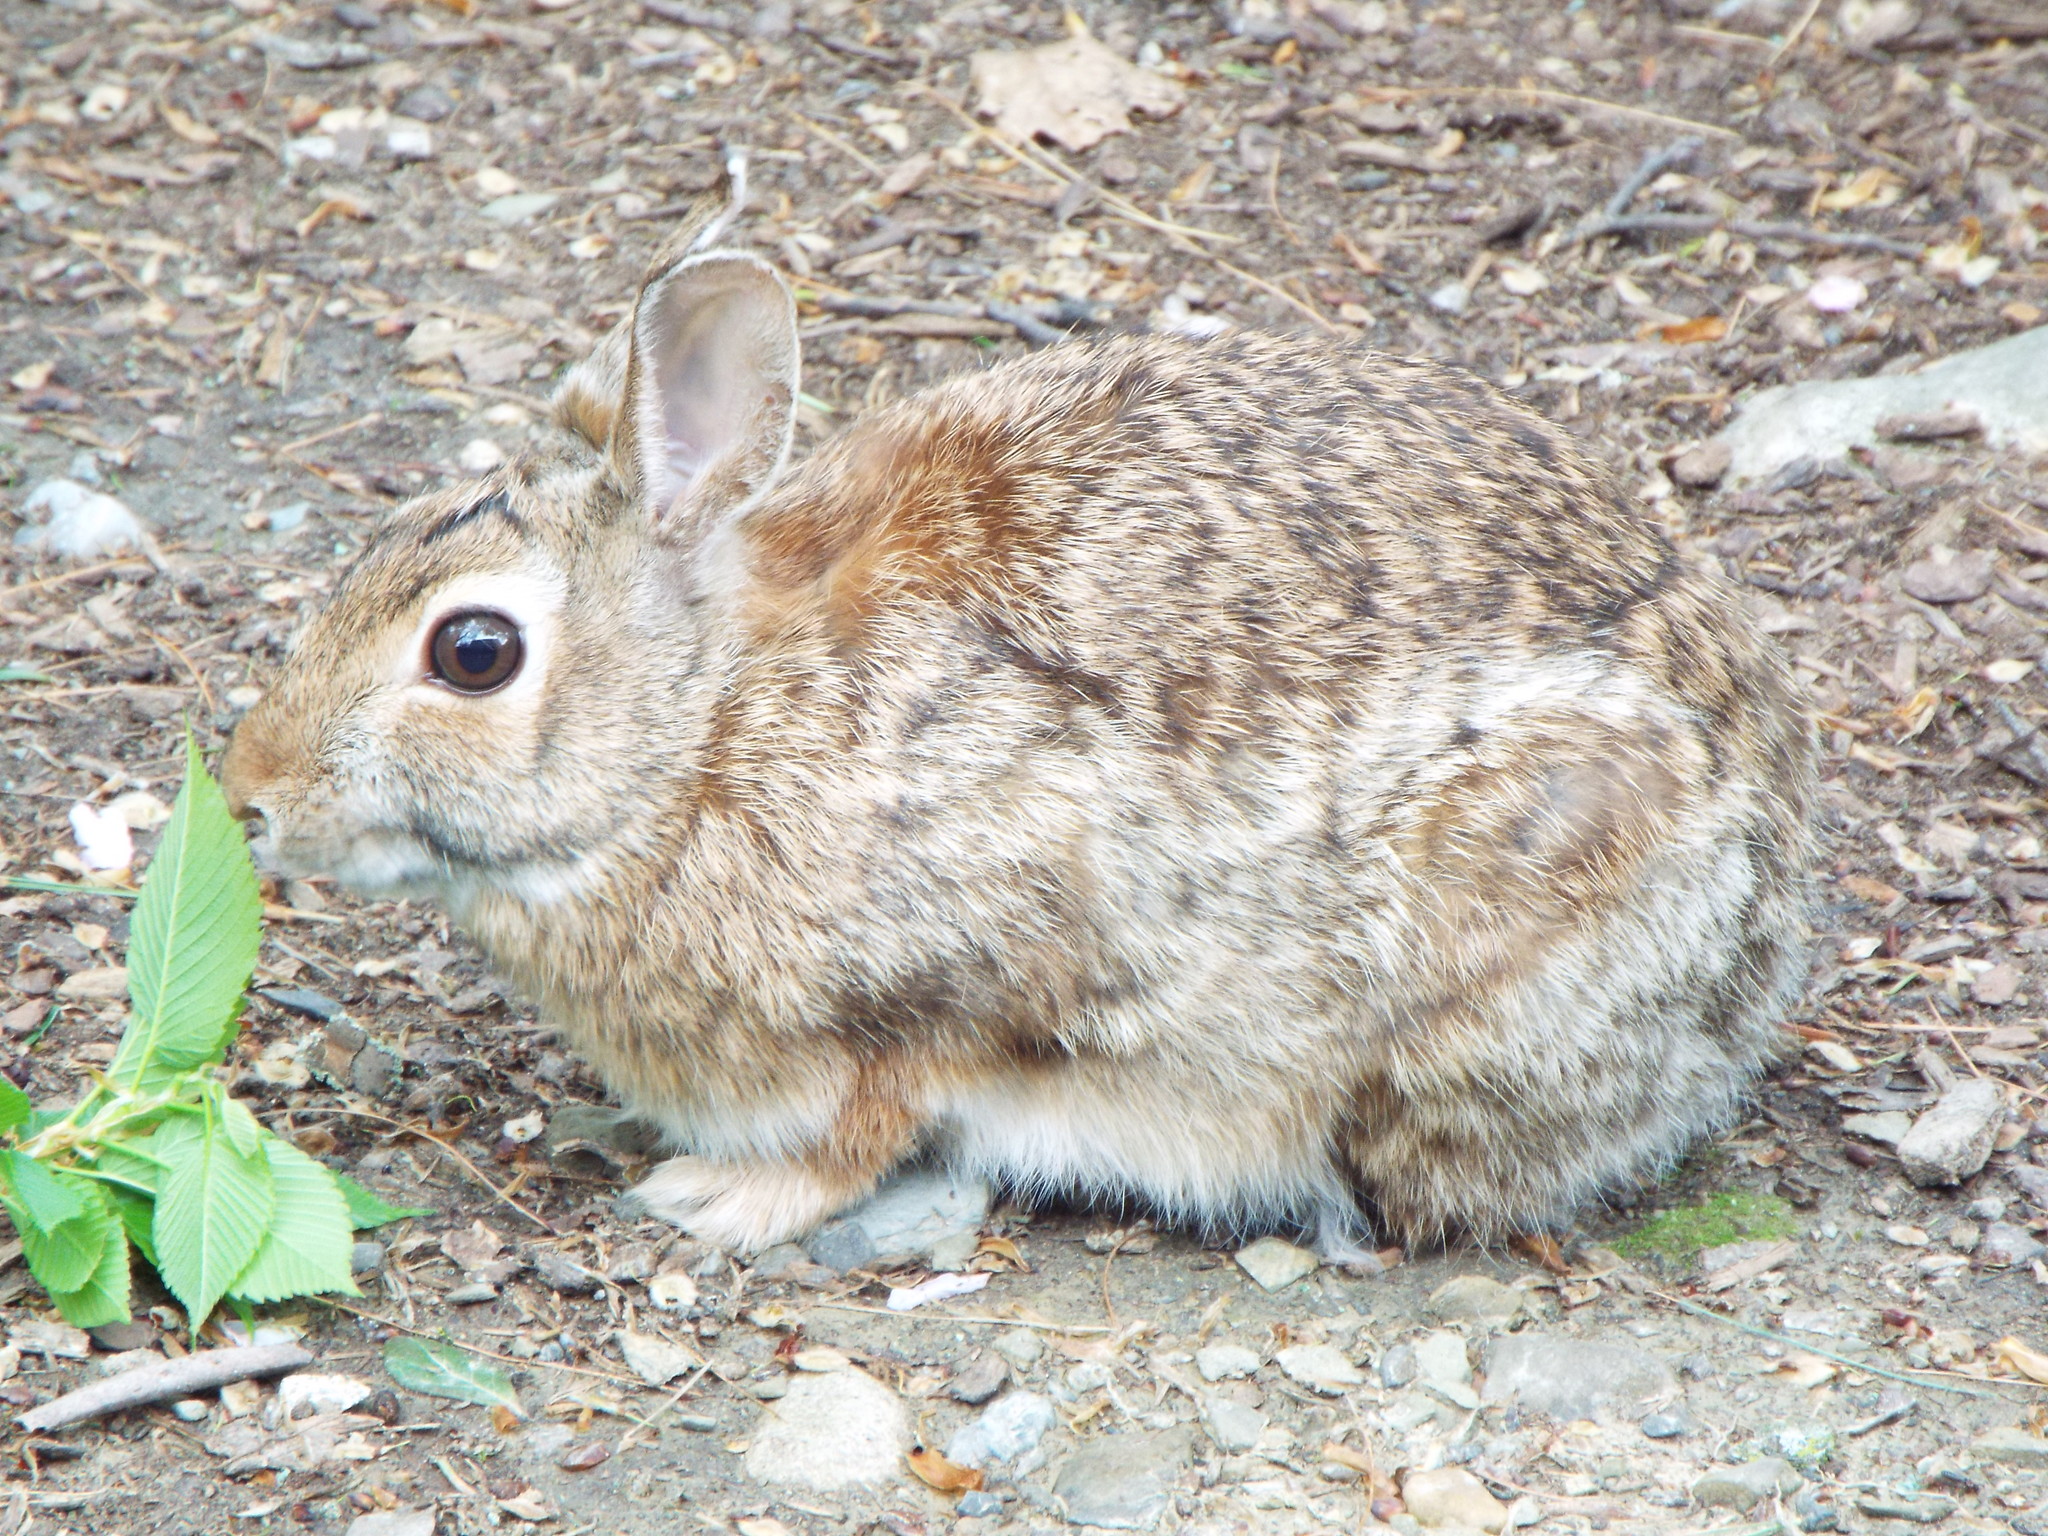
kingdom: Animalia
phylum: Chordata
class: Mammalia
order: Lagomorpha
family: Leporidae
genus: Sylvilagus
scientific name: Sylvilagus floridanus
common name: Eastern cottontail
